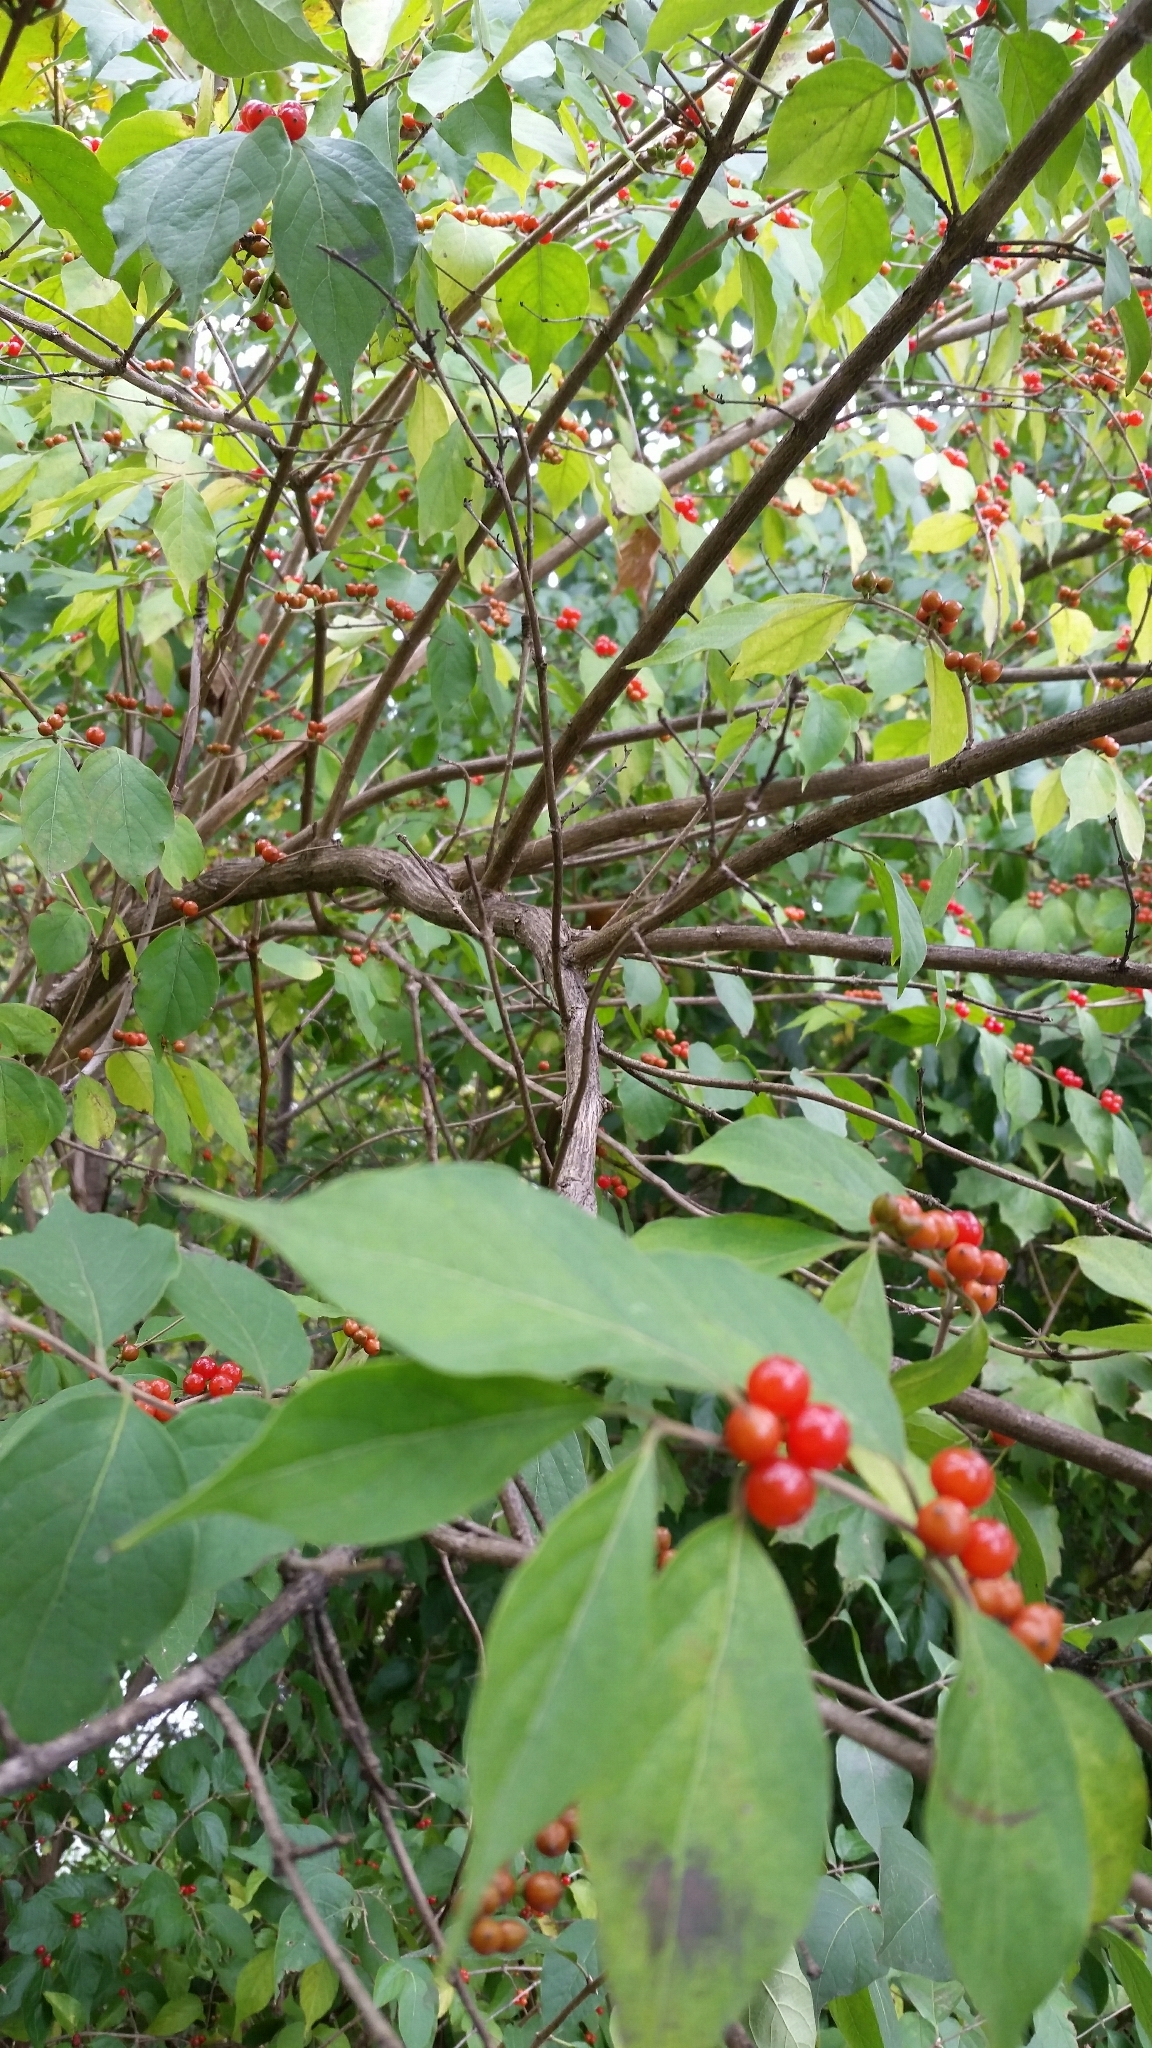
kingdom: Plantae
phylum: Tracheophyta
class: Magnoliopsida
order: Dipsacales
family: Caprifoliaceae
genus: Lonicera
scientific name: Lonicera maackii
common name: Amur honeysuckle
